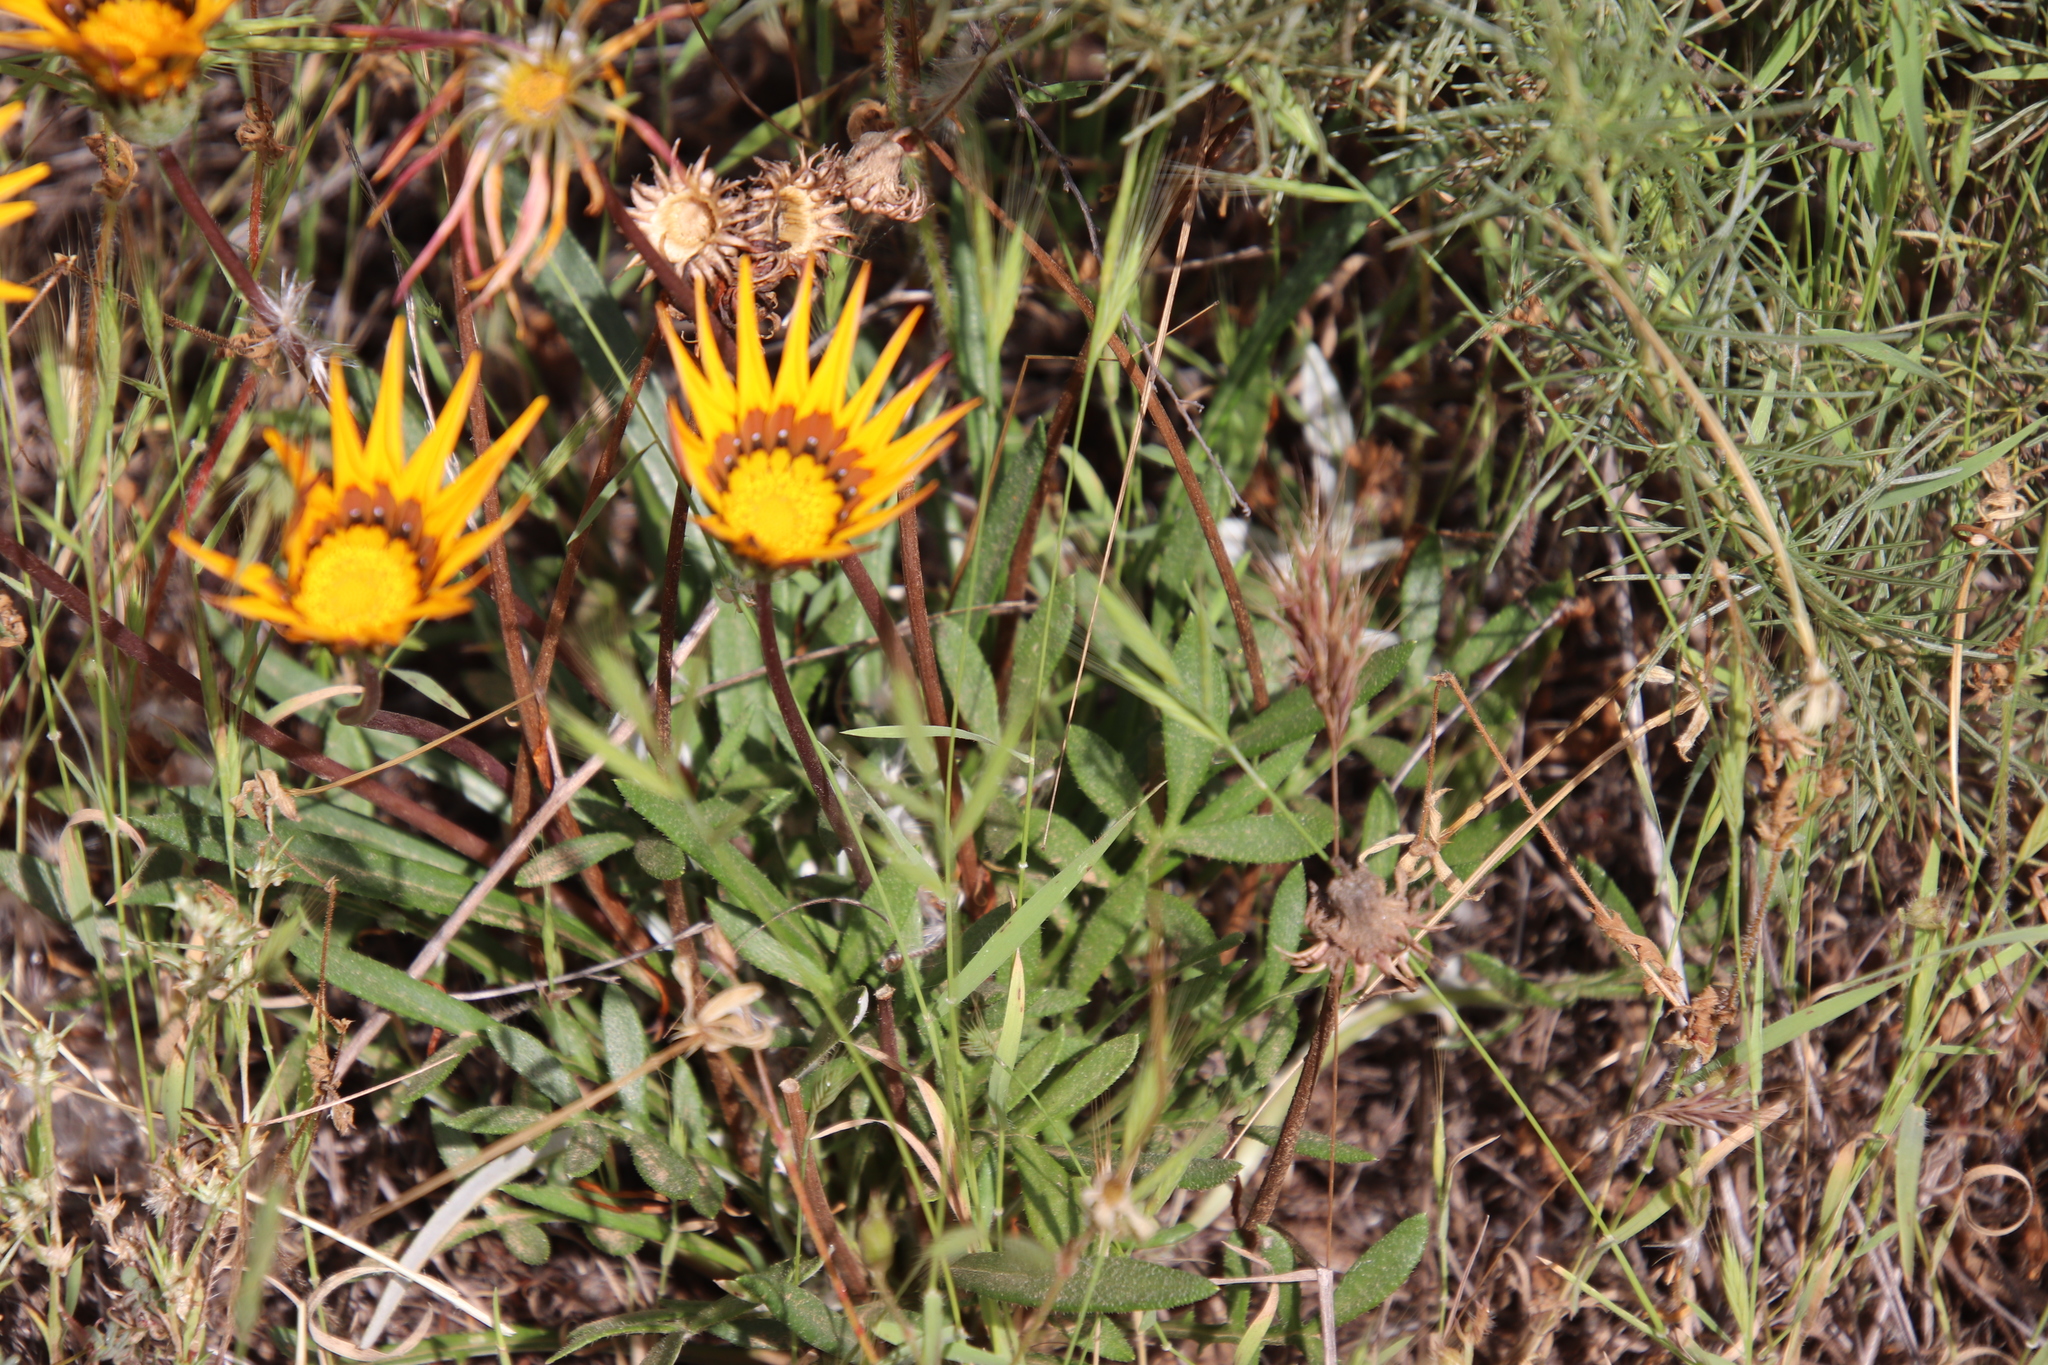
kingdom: Plantae
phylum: Tracheophyta
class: Magnoliopsida
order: Asterales
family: Asteraceae
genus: Gazania
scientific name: Gazania linearis
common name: Treasureflower
